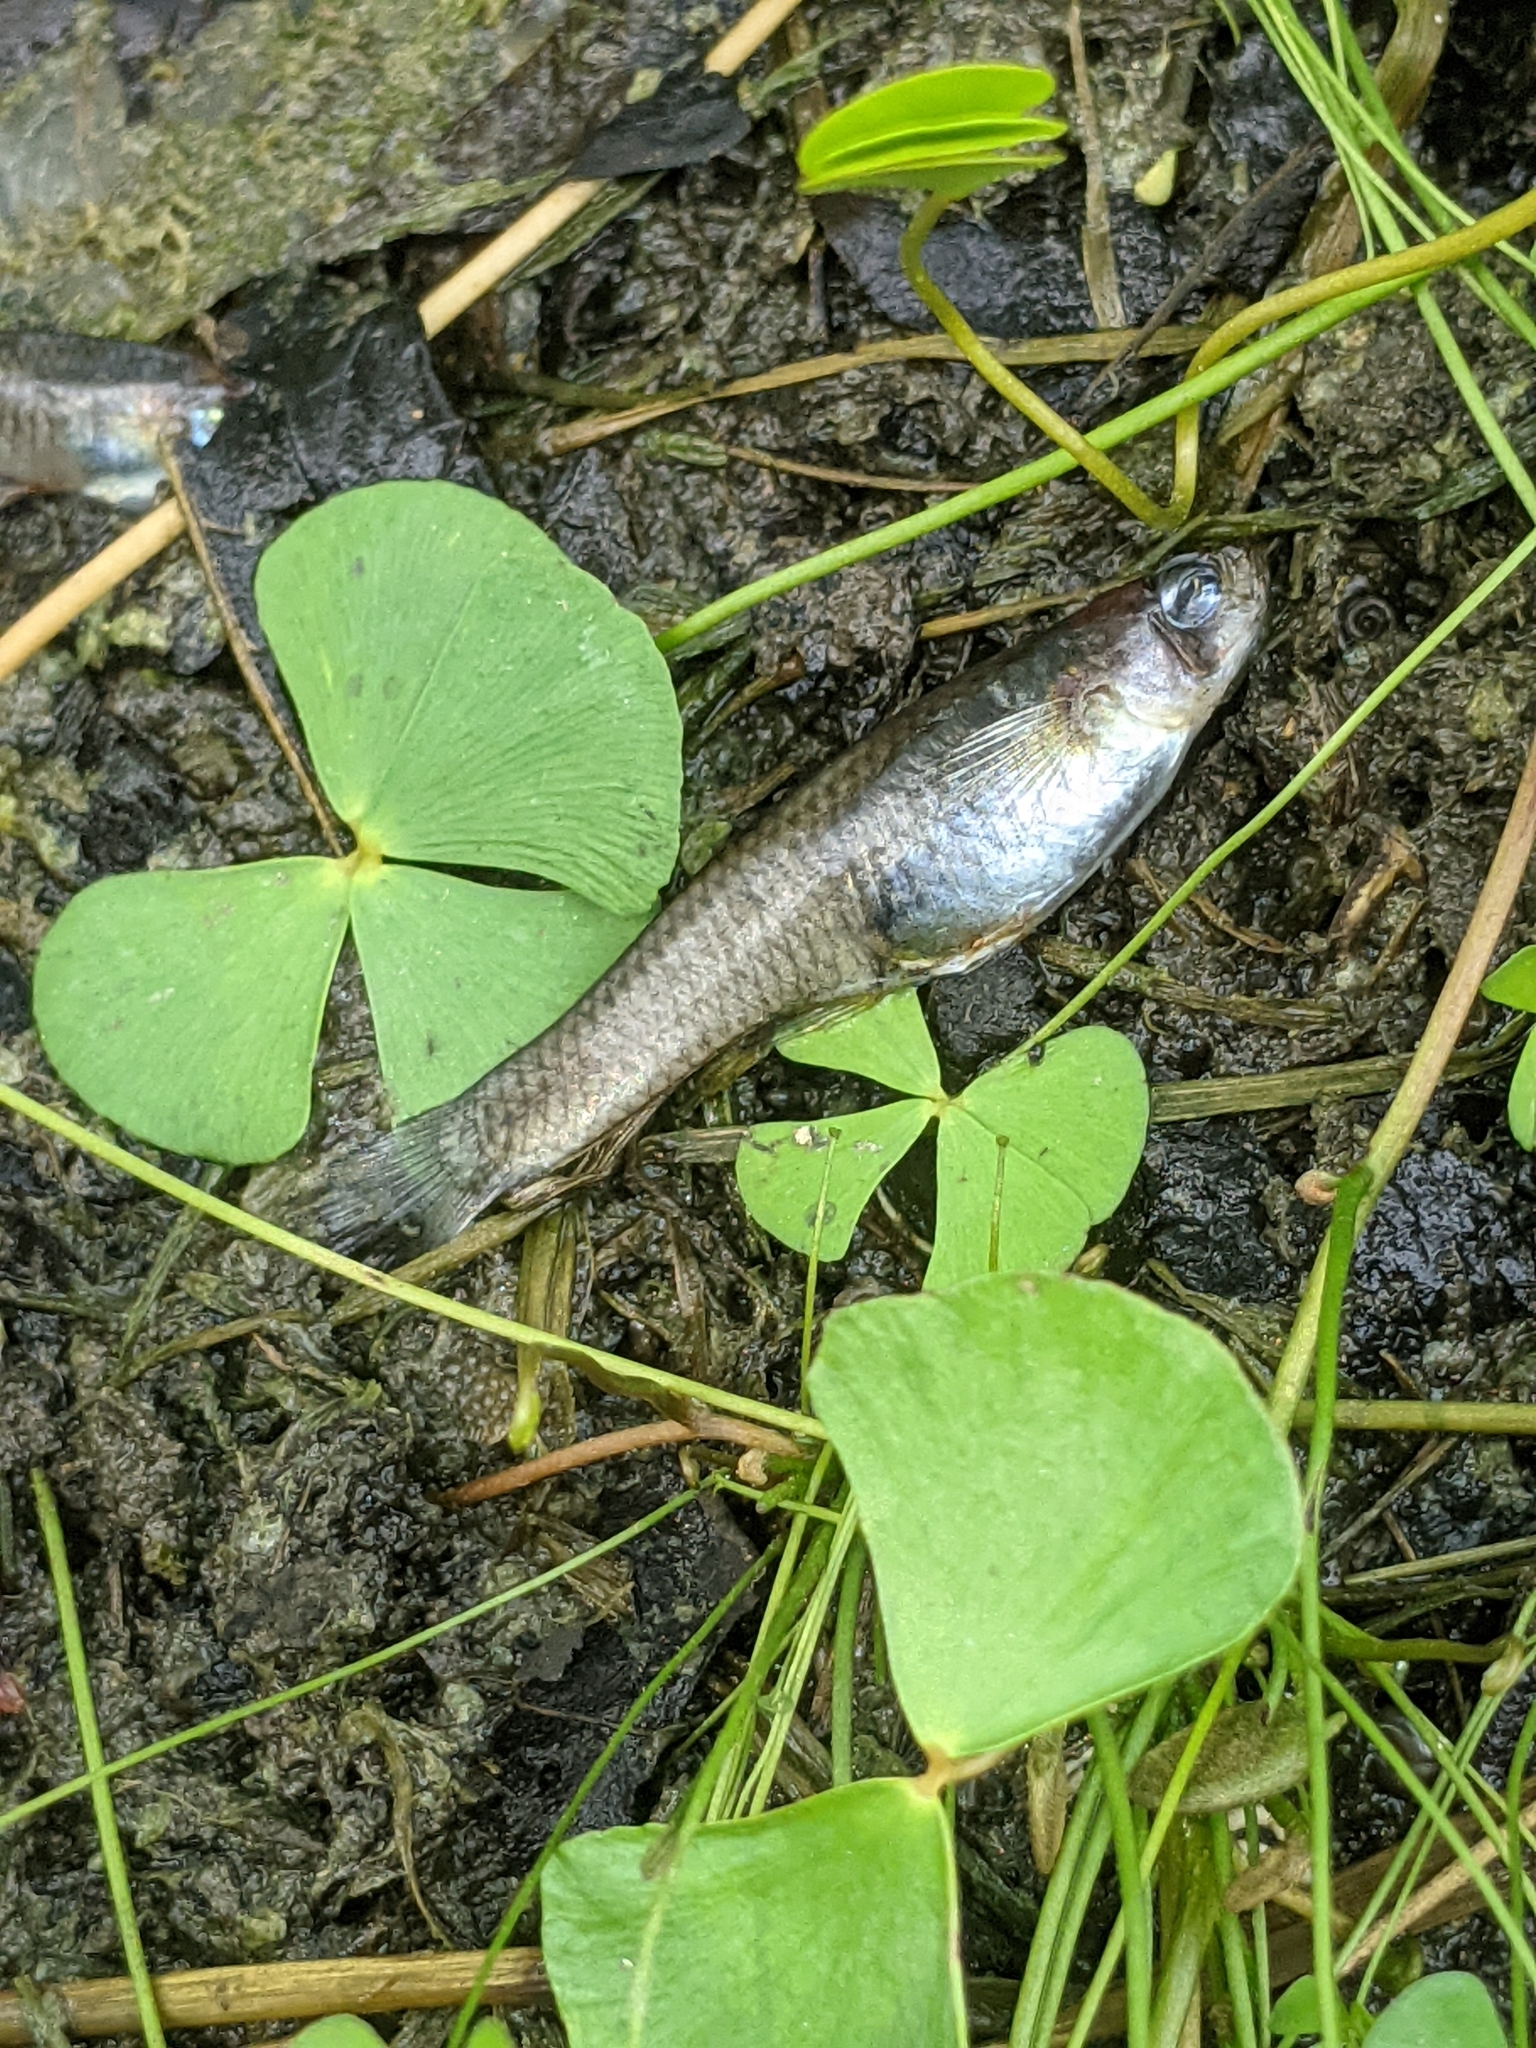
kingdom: Animalia
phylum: Chordata
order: Cyprinodontiformes
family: Poeciliidae
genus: Gambusia
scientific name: Gambusia affinis
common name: Mosquitofish
